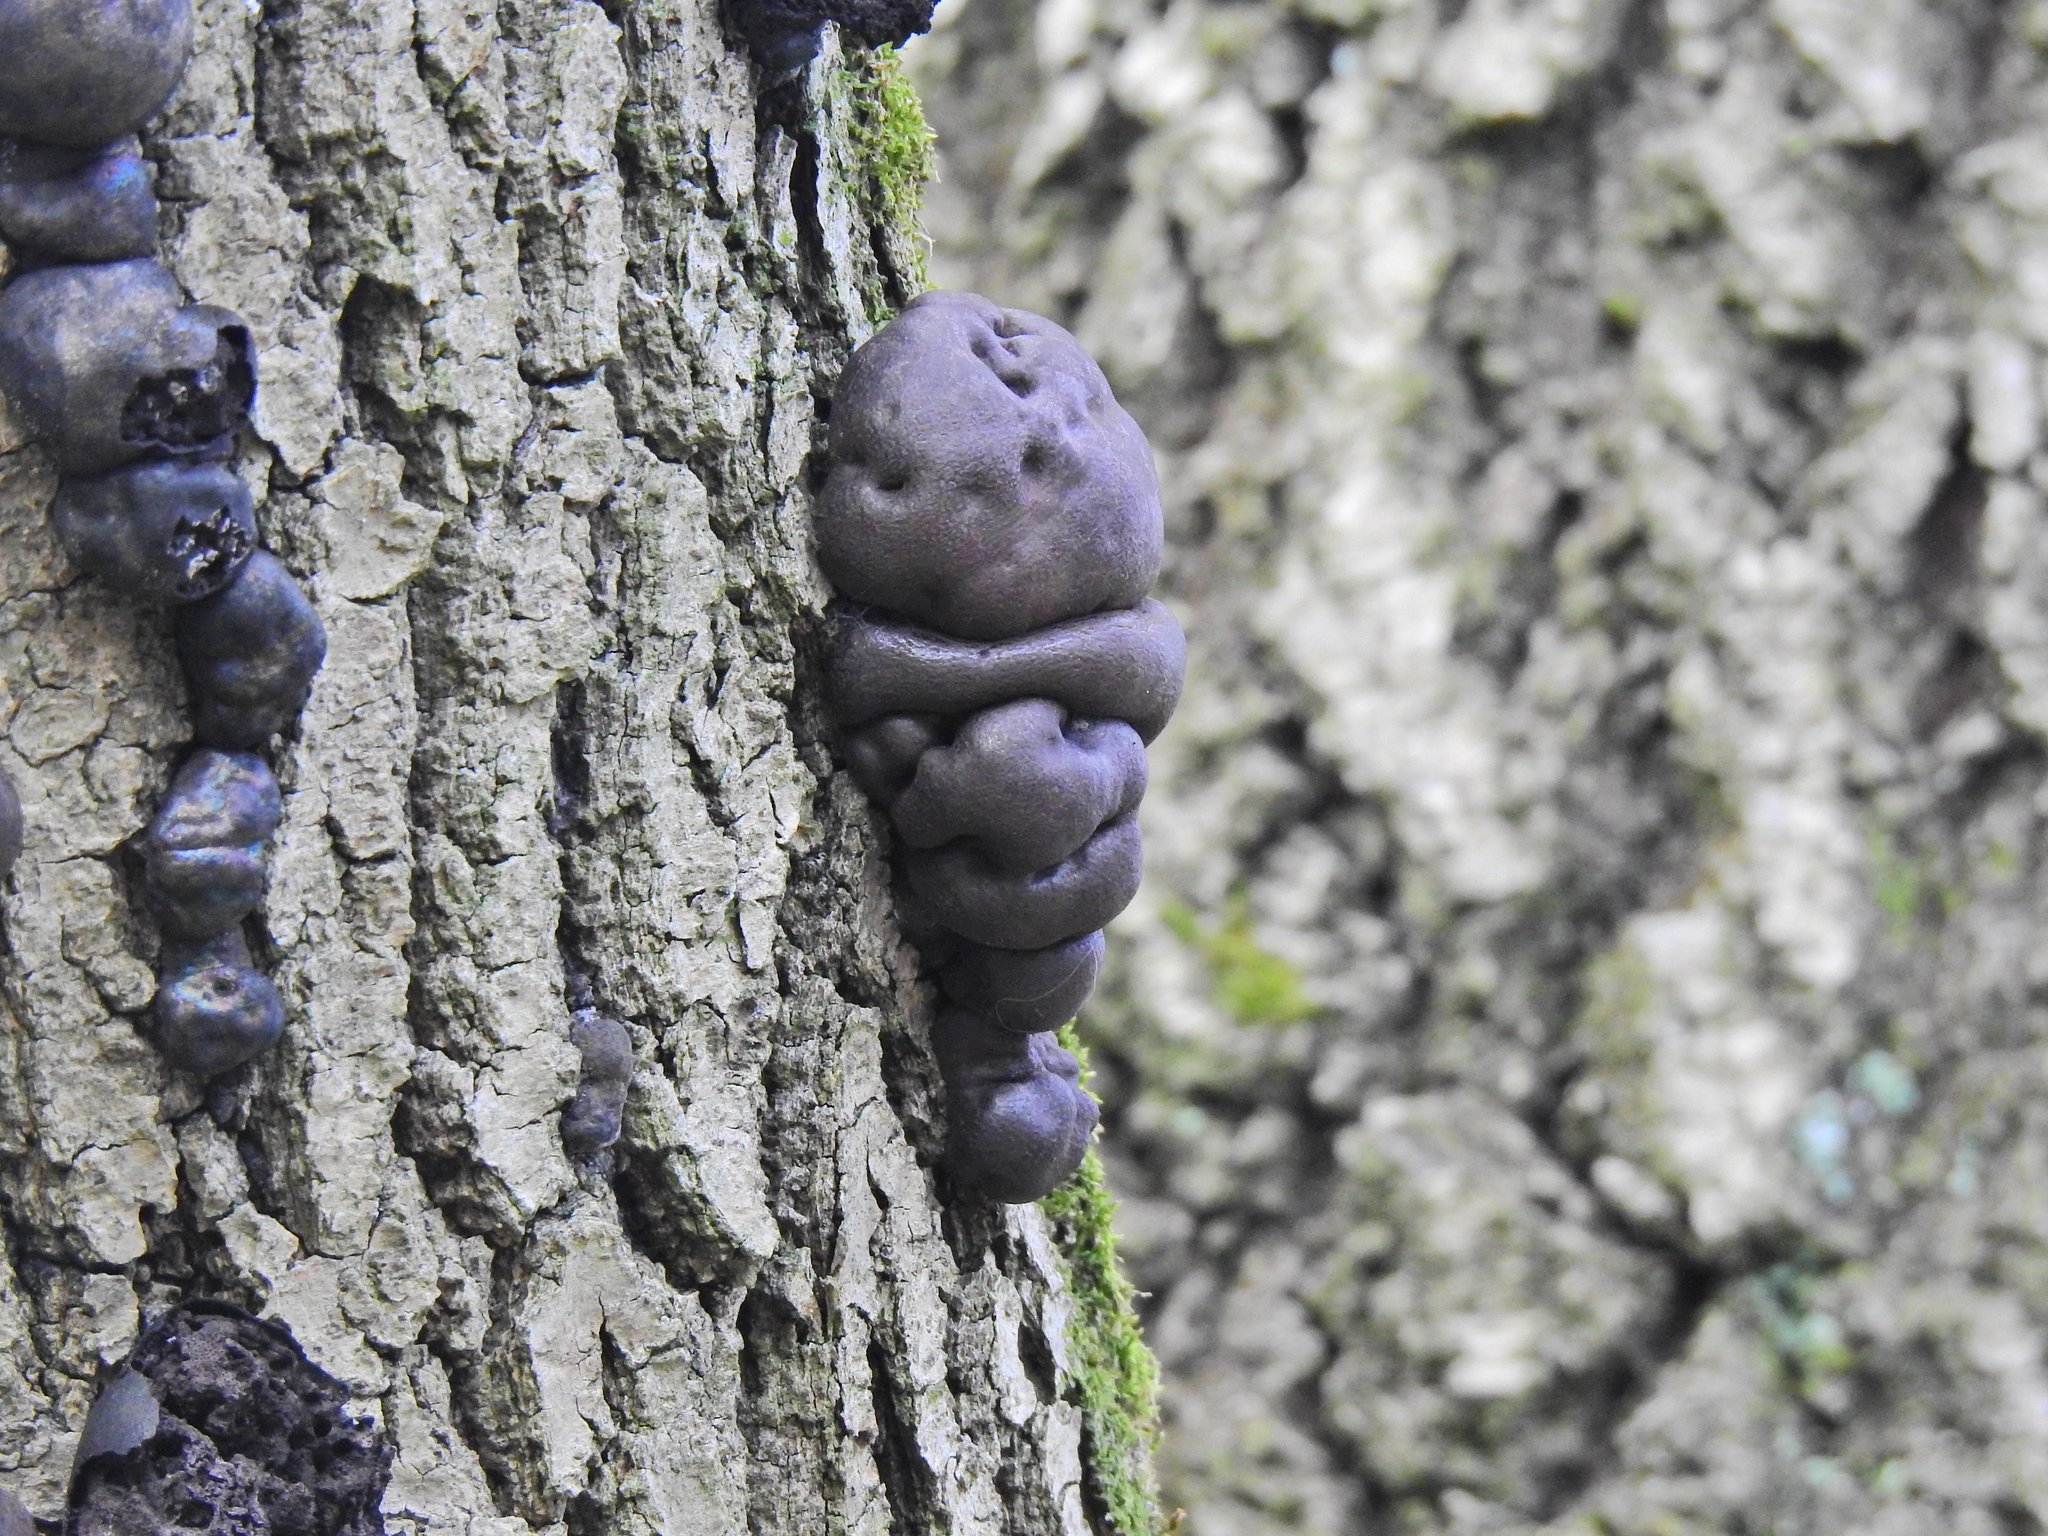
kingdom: Fungi
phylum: Ascomycota
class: Sordariomycetes
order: Xylariales
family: Hypoxylaceae
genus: Daldinia
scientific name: Daldinia concentrica
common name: Cramp balls
